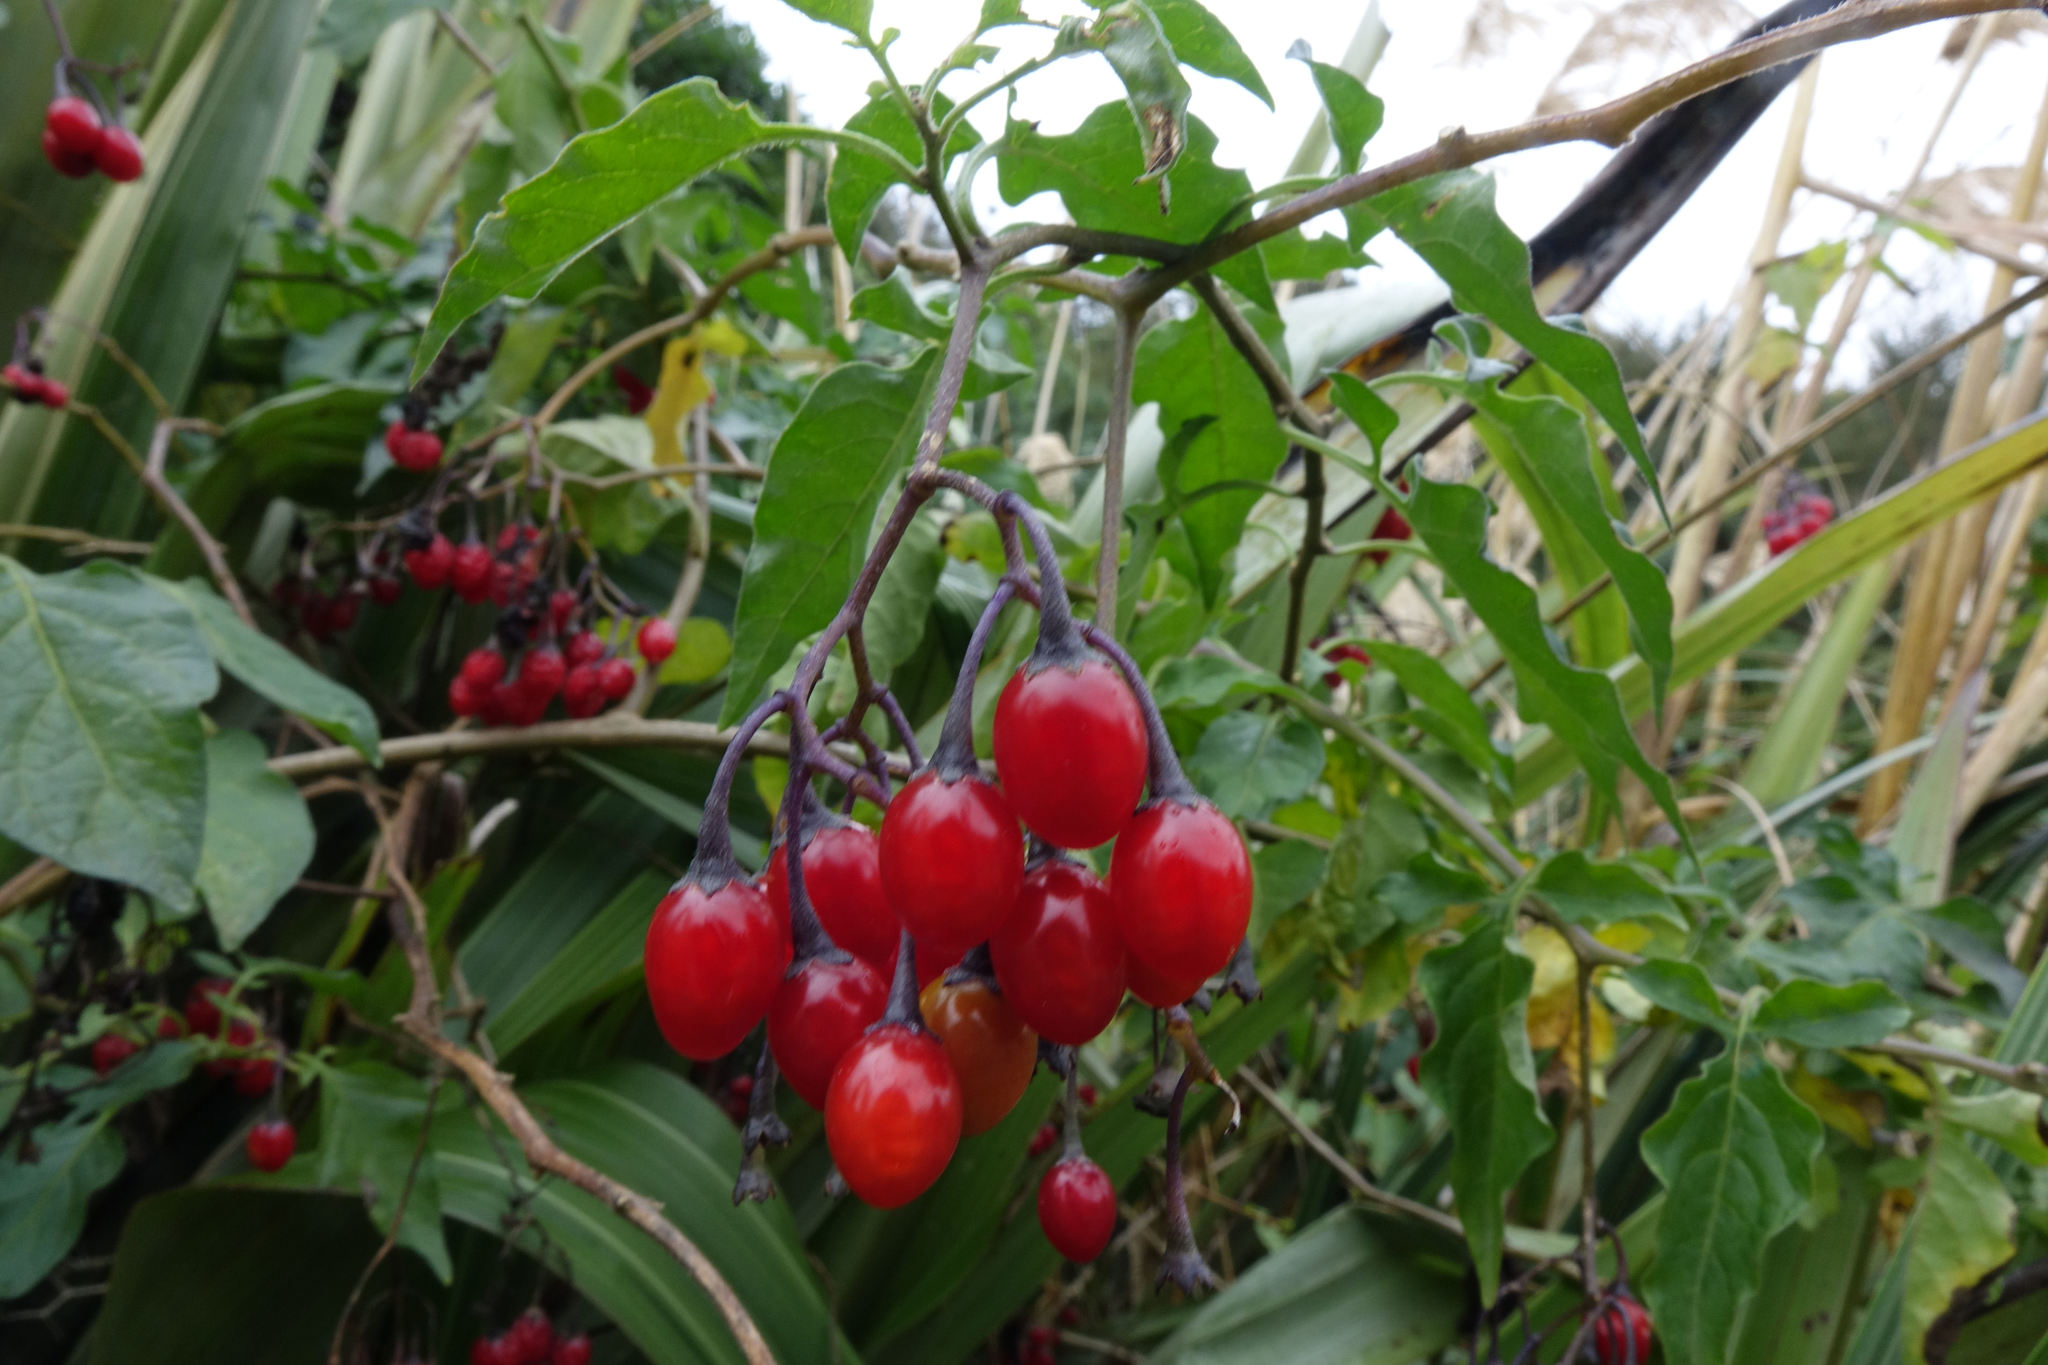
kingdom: Plantae
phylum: Tracheophyta
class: Magnoliopsida
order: Solanales
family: Solanaceae
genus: Solanum
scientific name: Solanum dulcamara
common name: Climbing nightshade
